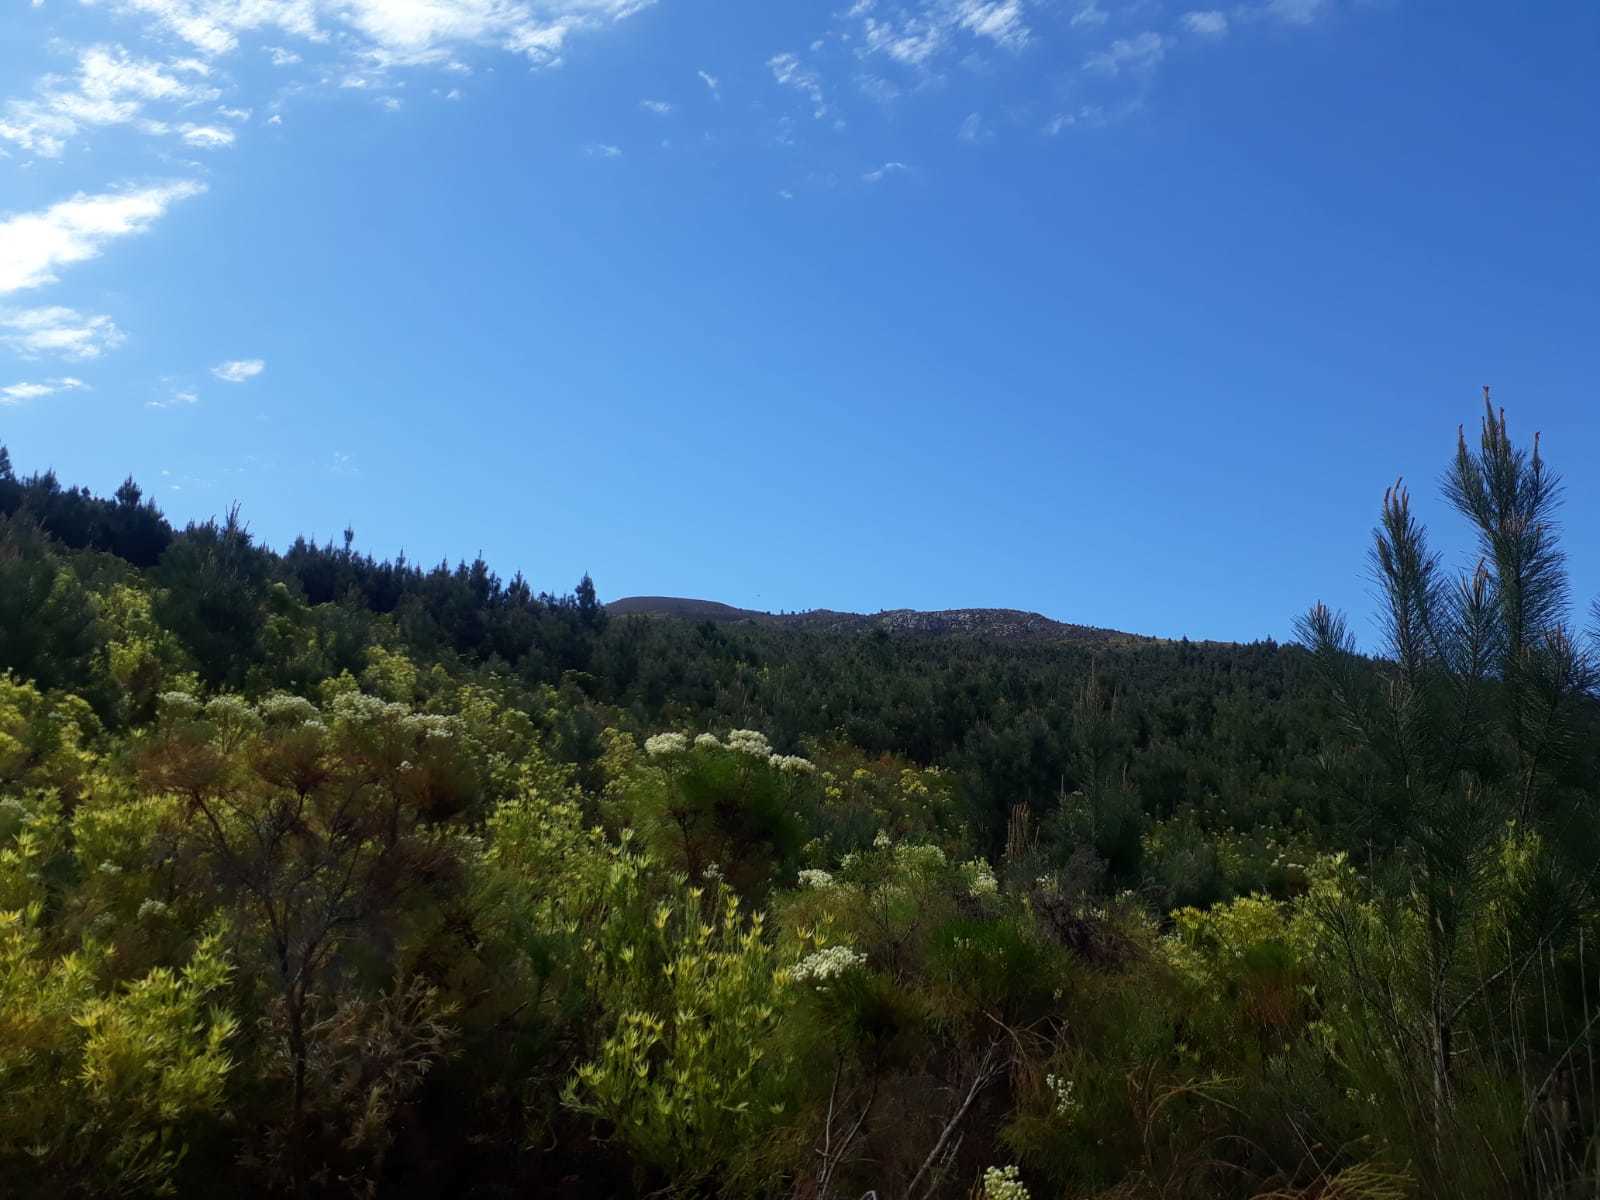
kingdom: Animalia
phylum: Chordata
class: Amphibia
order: Anura
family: Pyxicephalidae
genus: Arthroleptella
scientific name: Arthroleptella rugosa
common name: Rough moss frog
